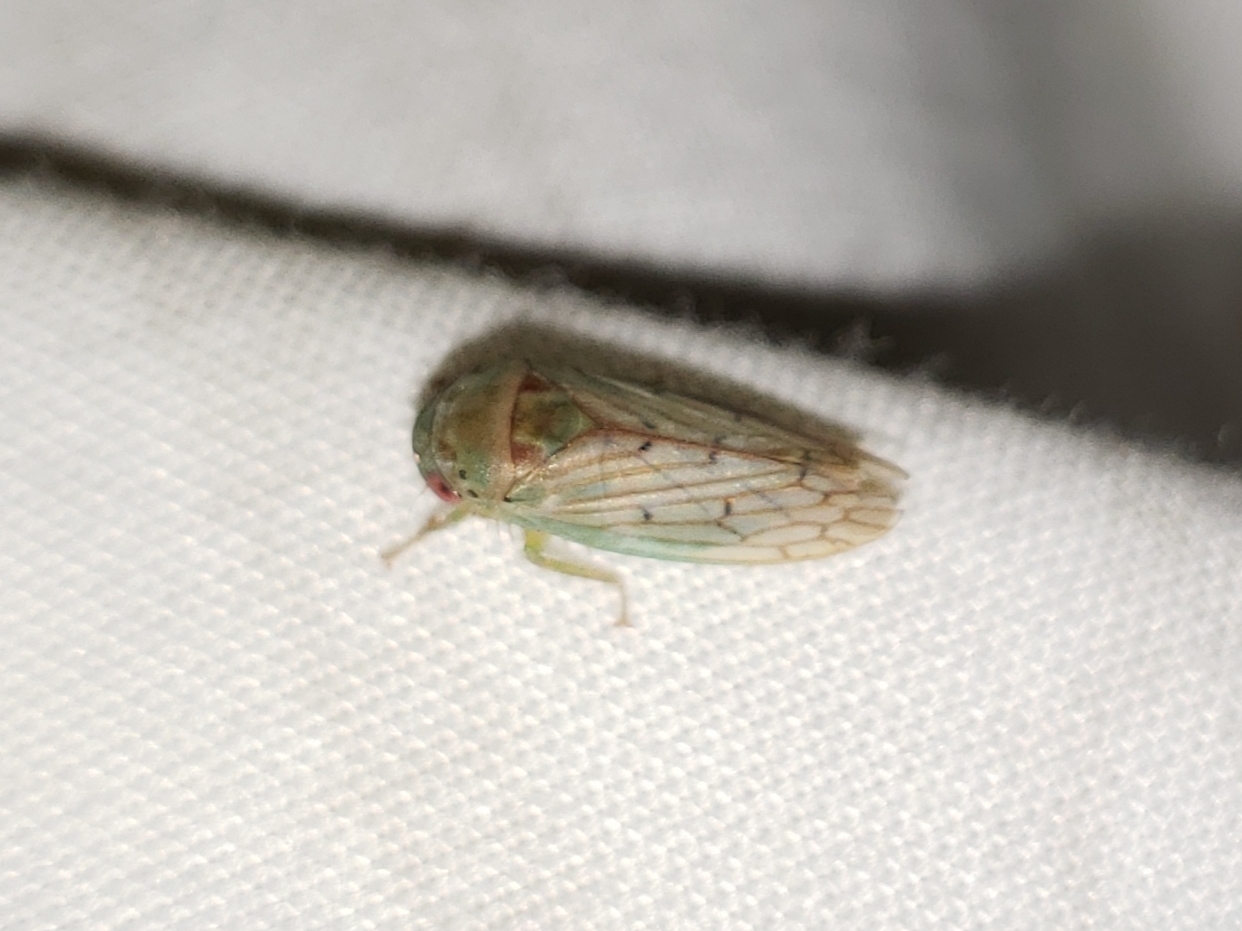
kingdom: Animalia
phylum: Arthropoda
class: Insecta
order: Hemiptera
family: Cicadellidae
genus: Polana
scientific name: Polana quadrinotata
